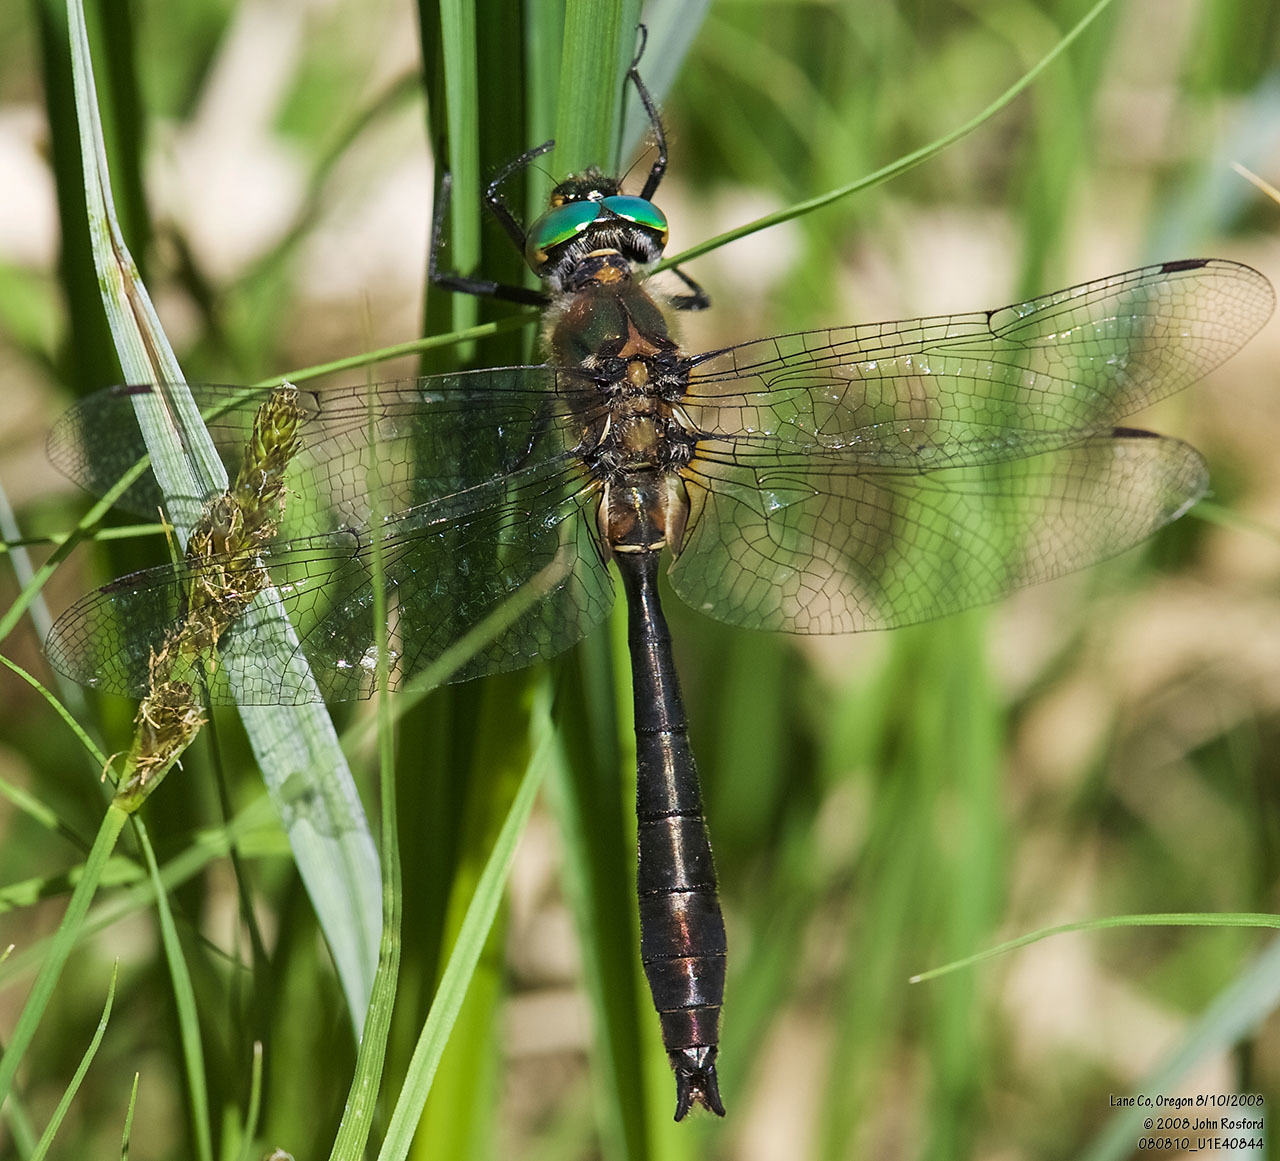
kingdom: Animalia
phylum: Arthropoda
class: Insecta
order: Odonata
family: Corduliidae
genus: Cordulia
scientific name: Cordulia shurtleffii
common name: American emerald
